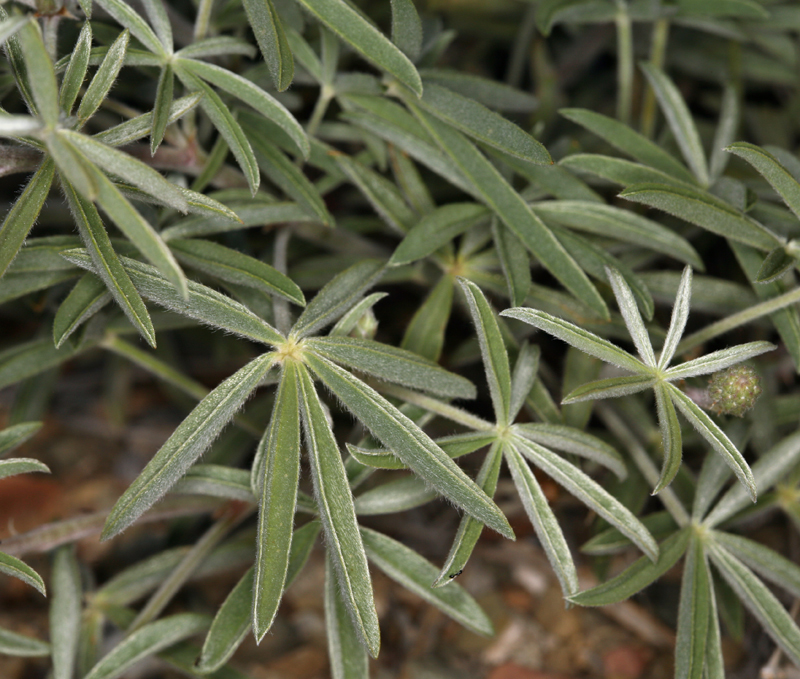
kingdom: Plantae
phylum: Tracheophyta
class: Magnoliopsida
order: Fabales
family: Fabaceae
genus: Lupinus
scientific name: Lupinus argenteus
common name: Silvery lupine
